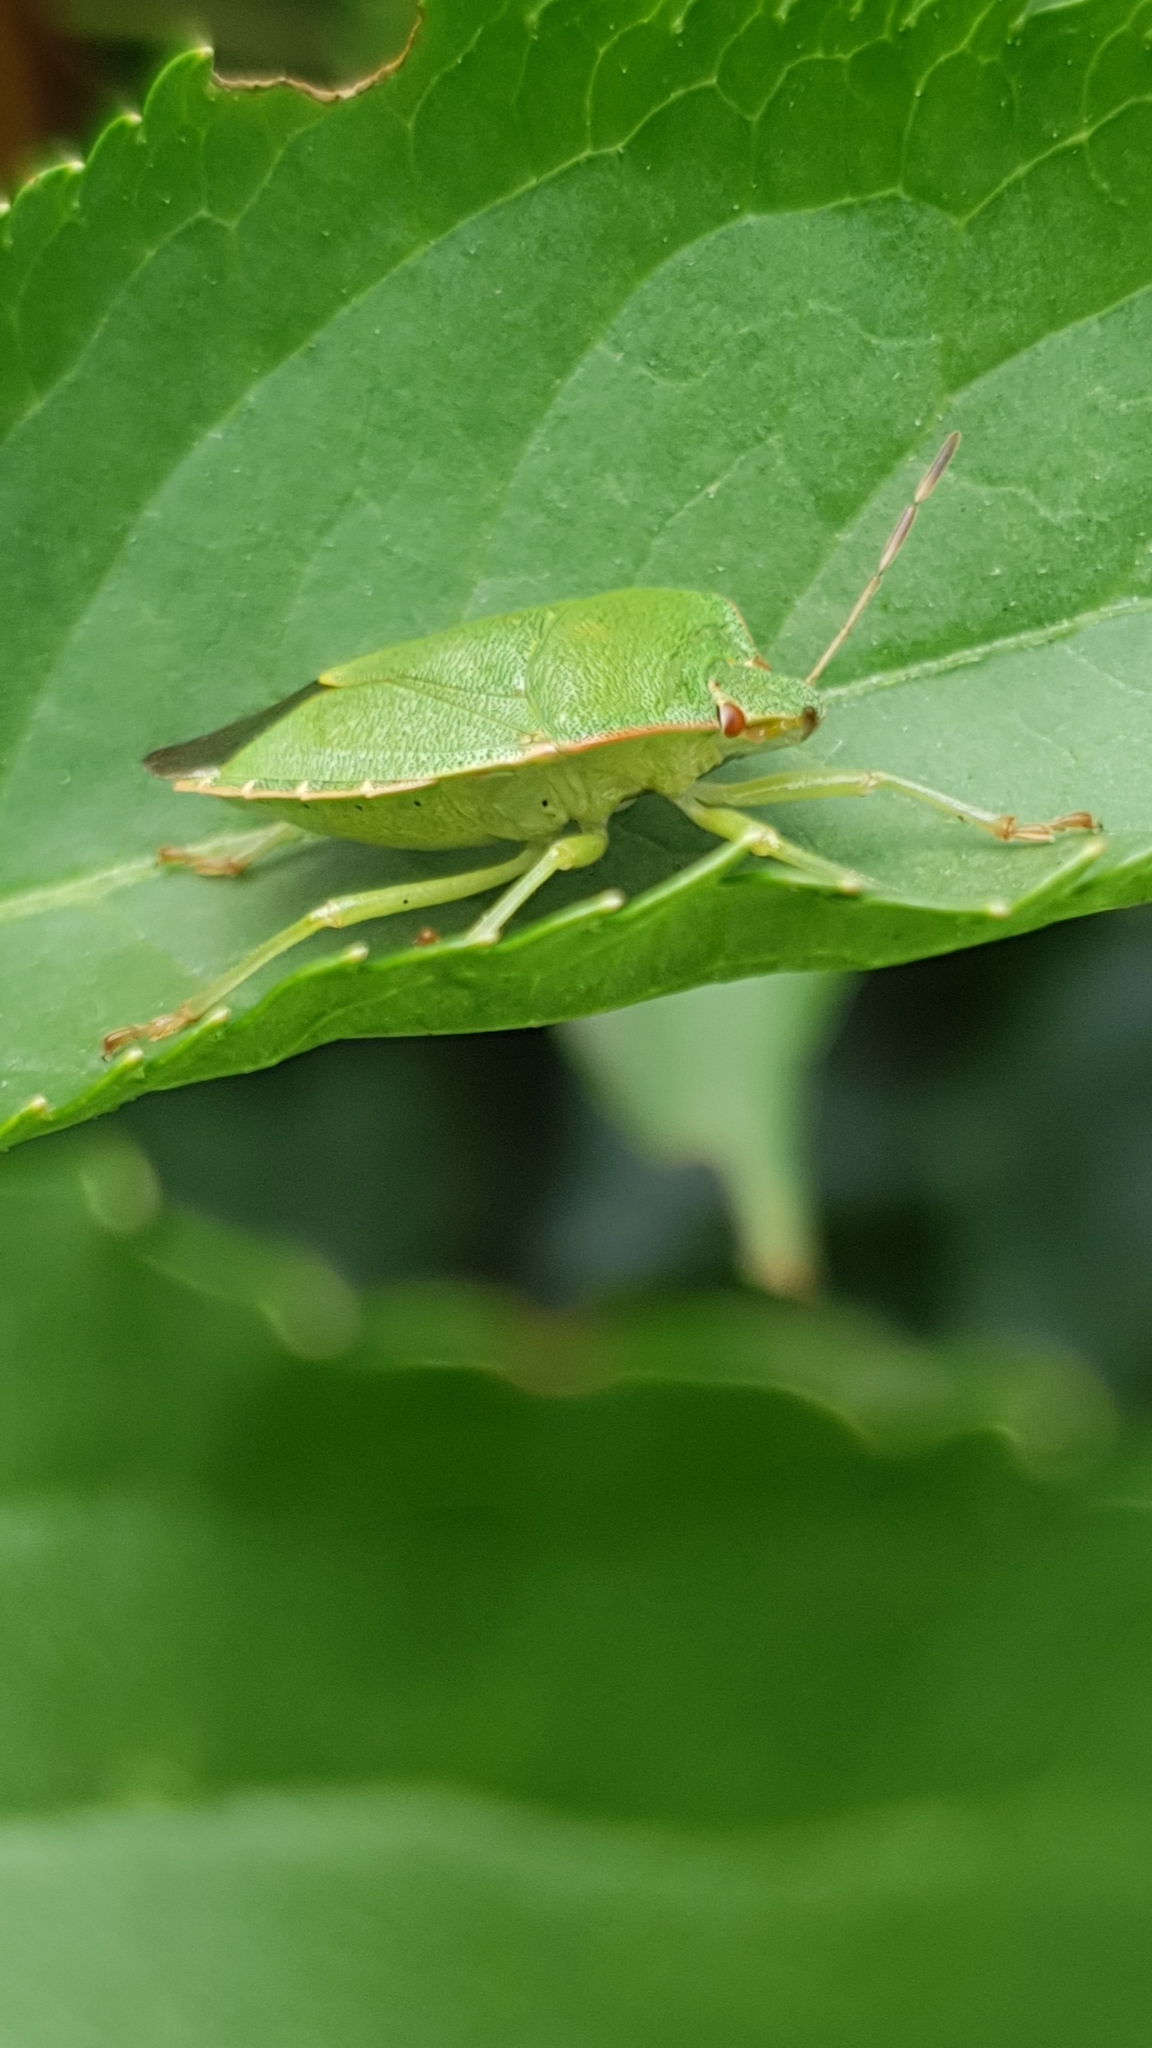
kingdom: Animalia
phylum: Arthropoda
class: Insecta
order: Hemiptera
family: Pentatomidae
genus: Palomena
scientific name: Palomena prasina
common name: Green shieldbug
